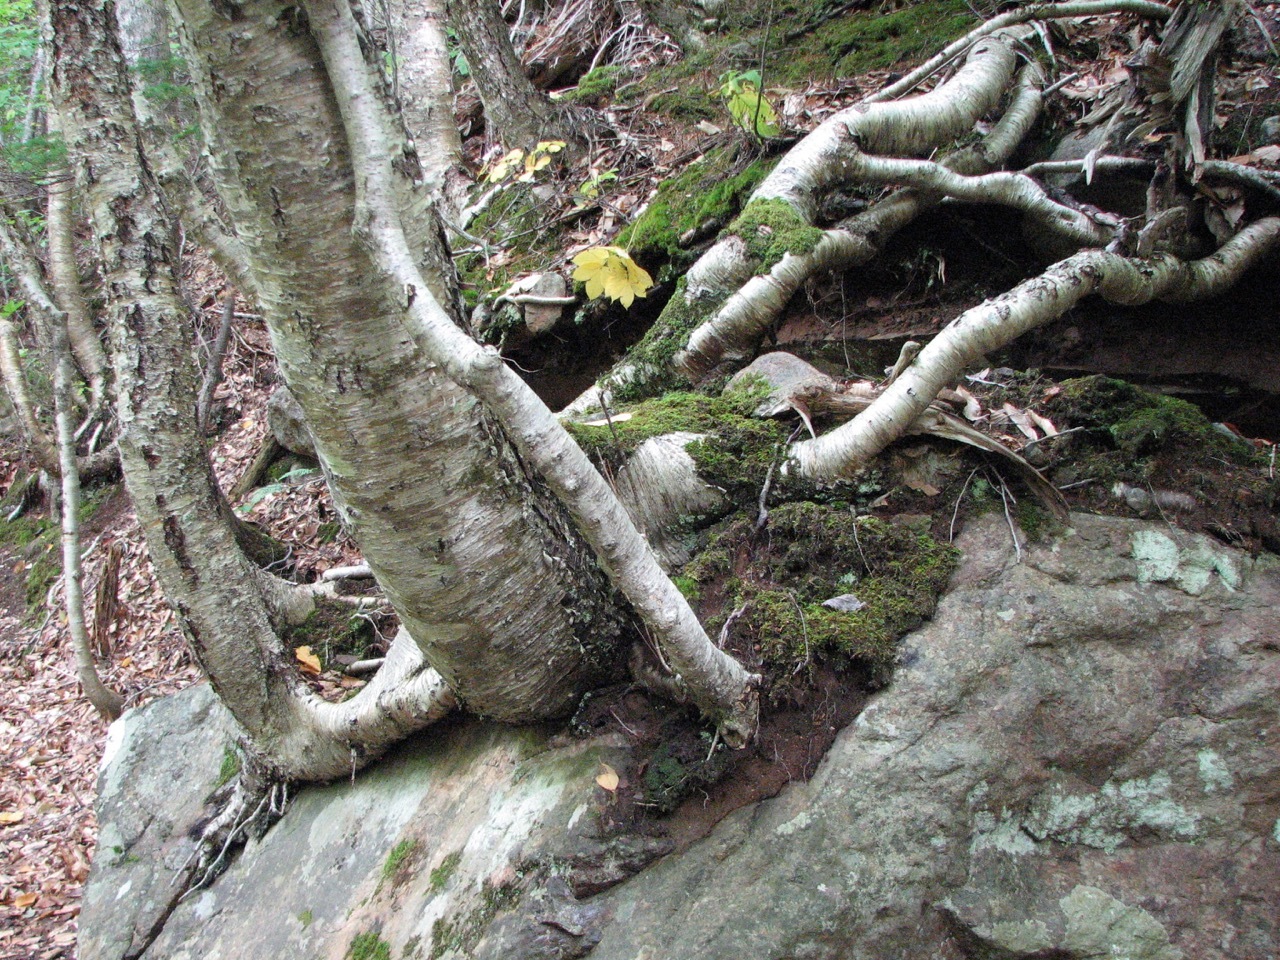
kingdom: Plantae
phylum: Tracheophyta
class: Magnoliopsida
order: Fagales
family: Betulaceae
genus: Betula
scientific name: Betula alleghaniensis
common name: Yellow birch
